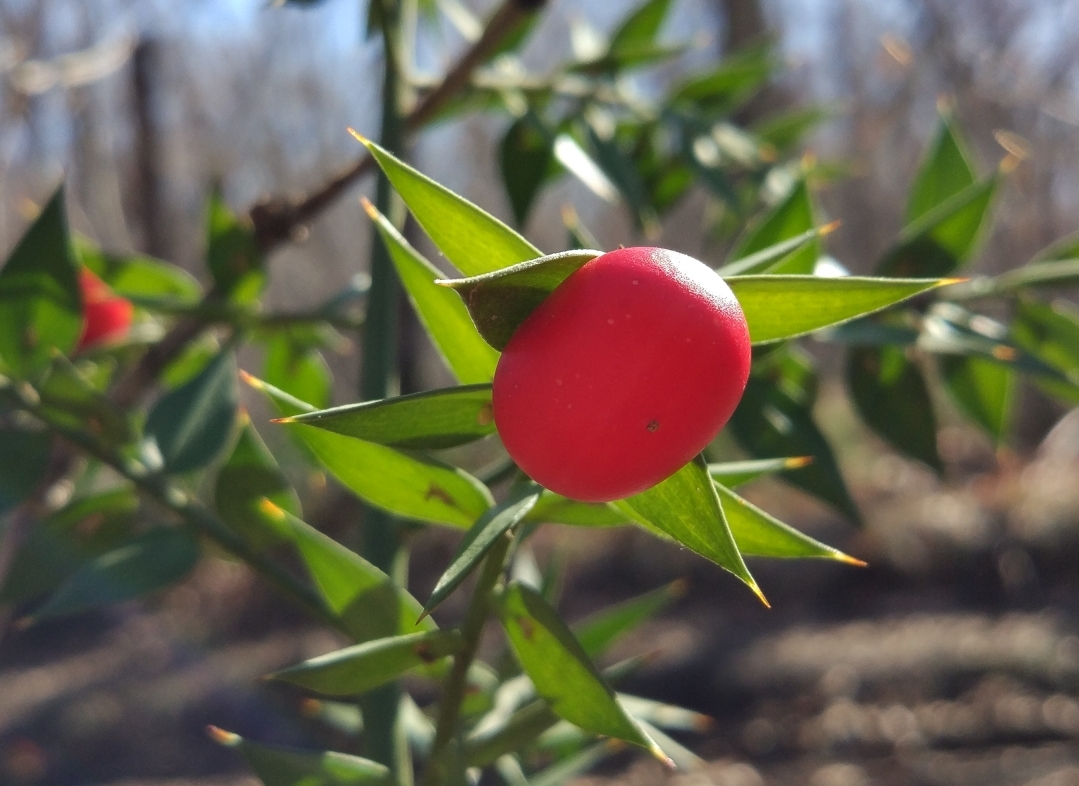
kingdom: Plantae
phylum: Tracheophyta
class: Liliopsida
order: Asparagales
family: Asparagaceae
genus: Ruscus
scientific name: Ruscus aculeatus
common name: Butcher's-broom
